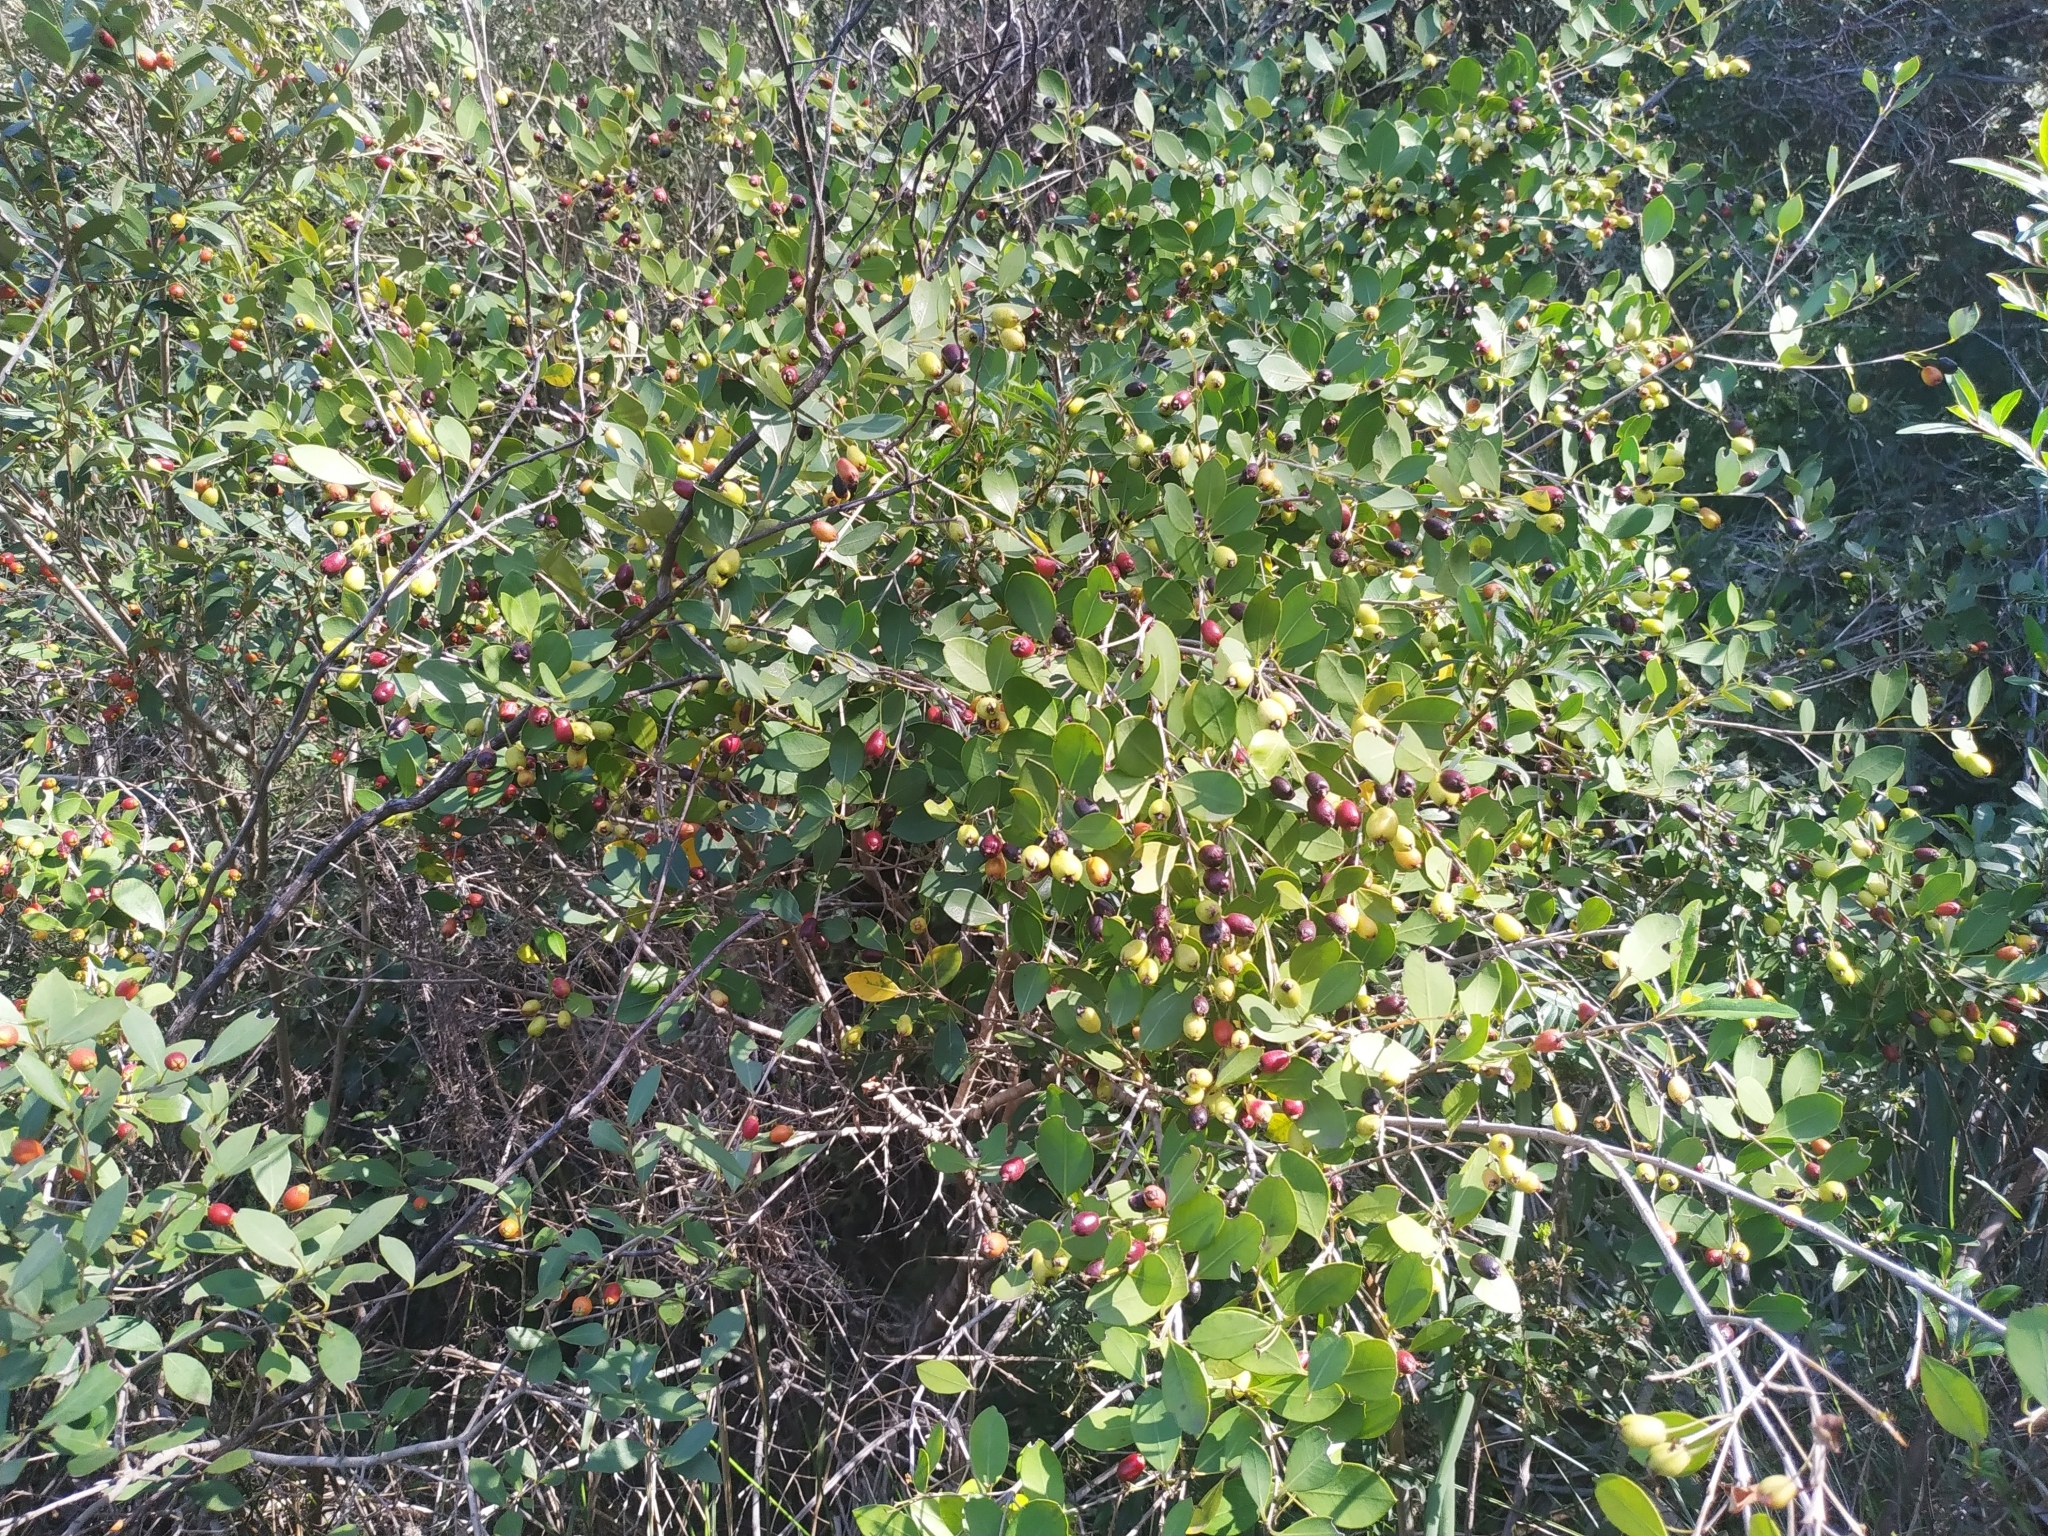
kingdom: Plantae
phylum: Tracheophyta
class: Magnoliopsida
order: Myrtales
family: Myrtaceae
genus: Myrceugenia
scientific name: Myrceugenia glaucescens
